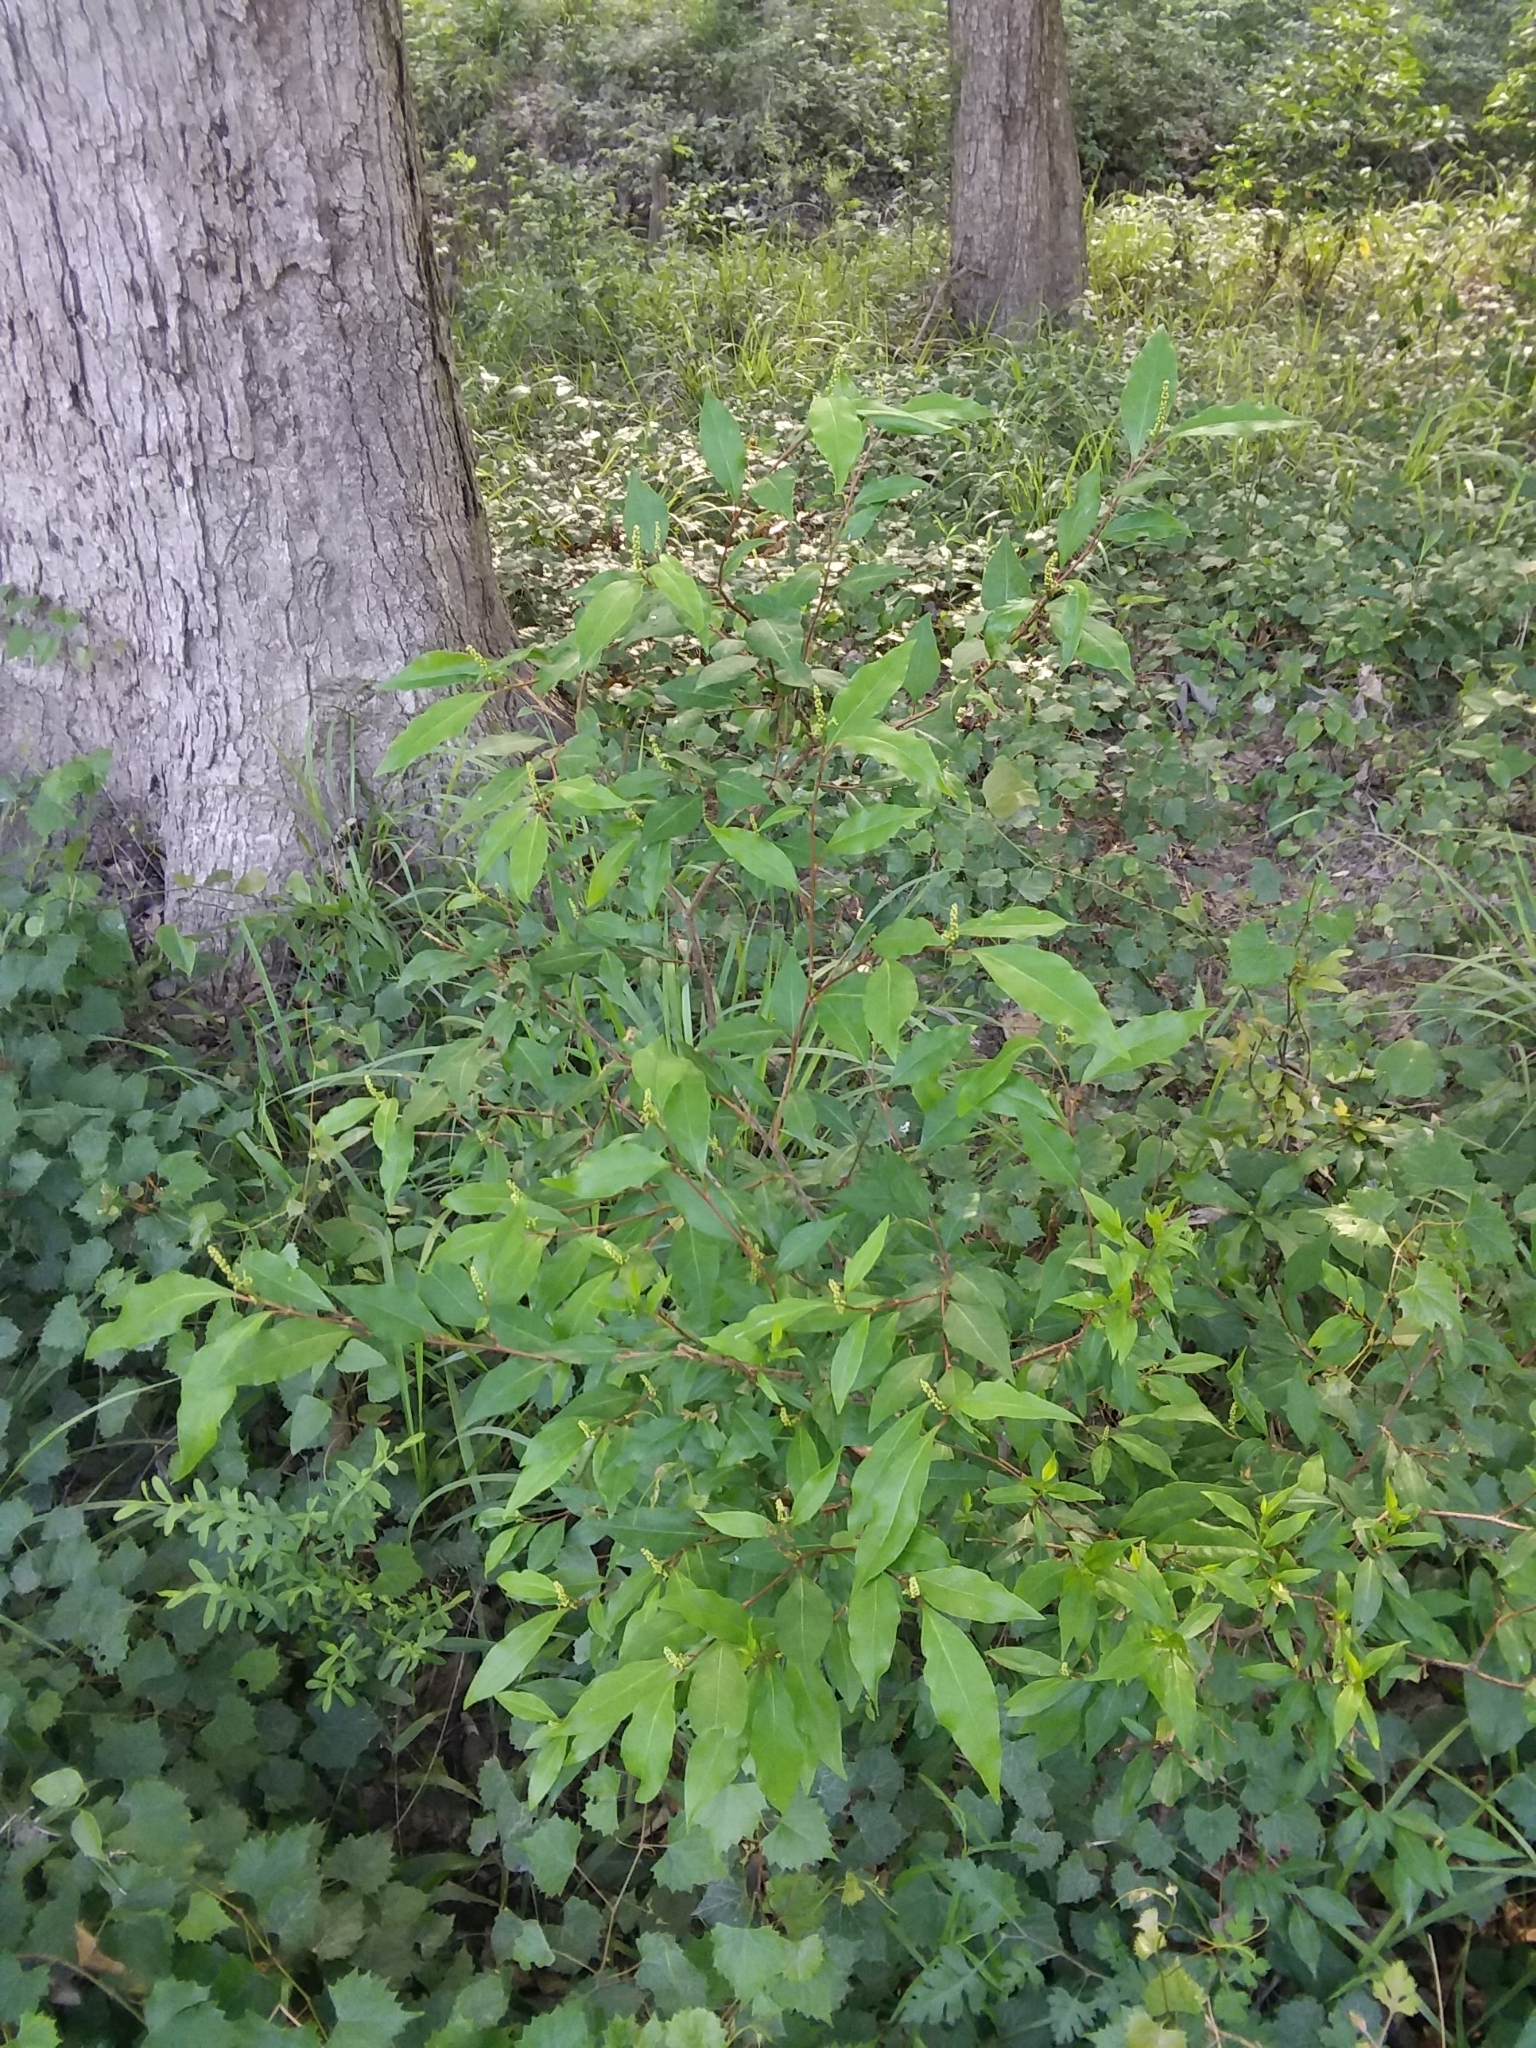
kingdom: Plantae
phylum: Tracheophyta
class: Magnoliopsida
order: Malpighiales
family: Euphorbiaceae
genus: Ditrysinia
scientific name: Ditrysinia fruticosa
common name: Gulf sebastian-bush
